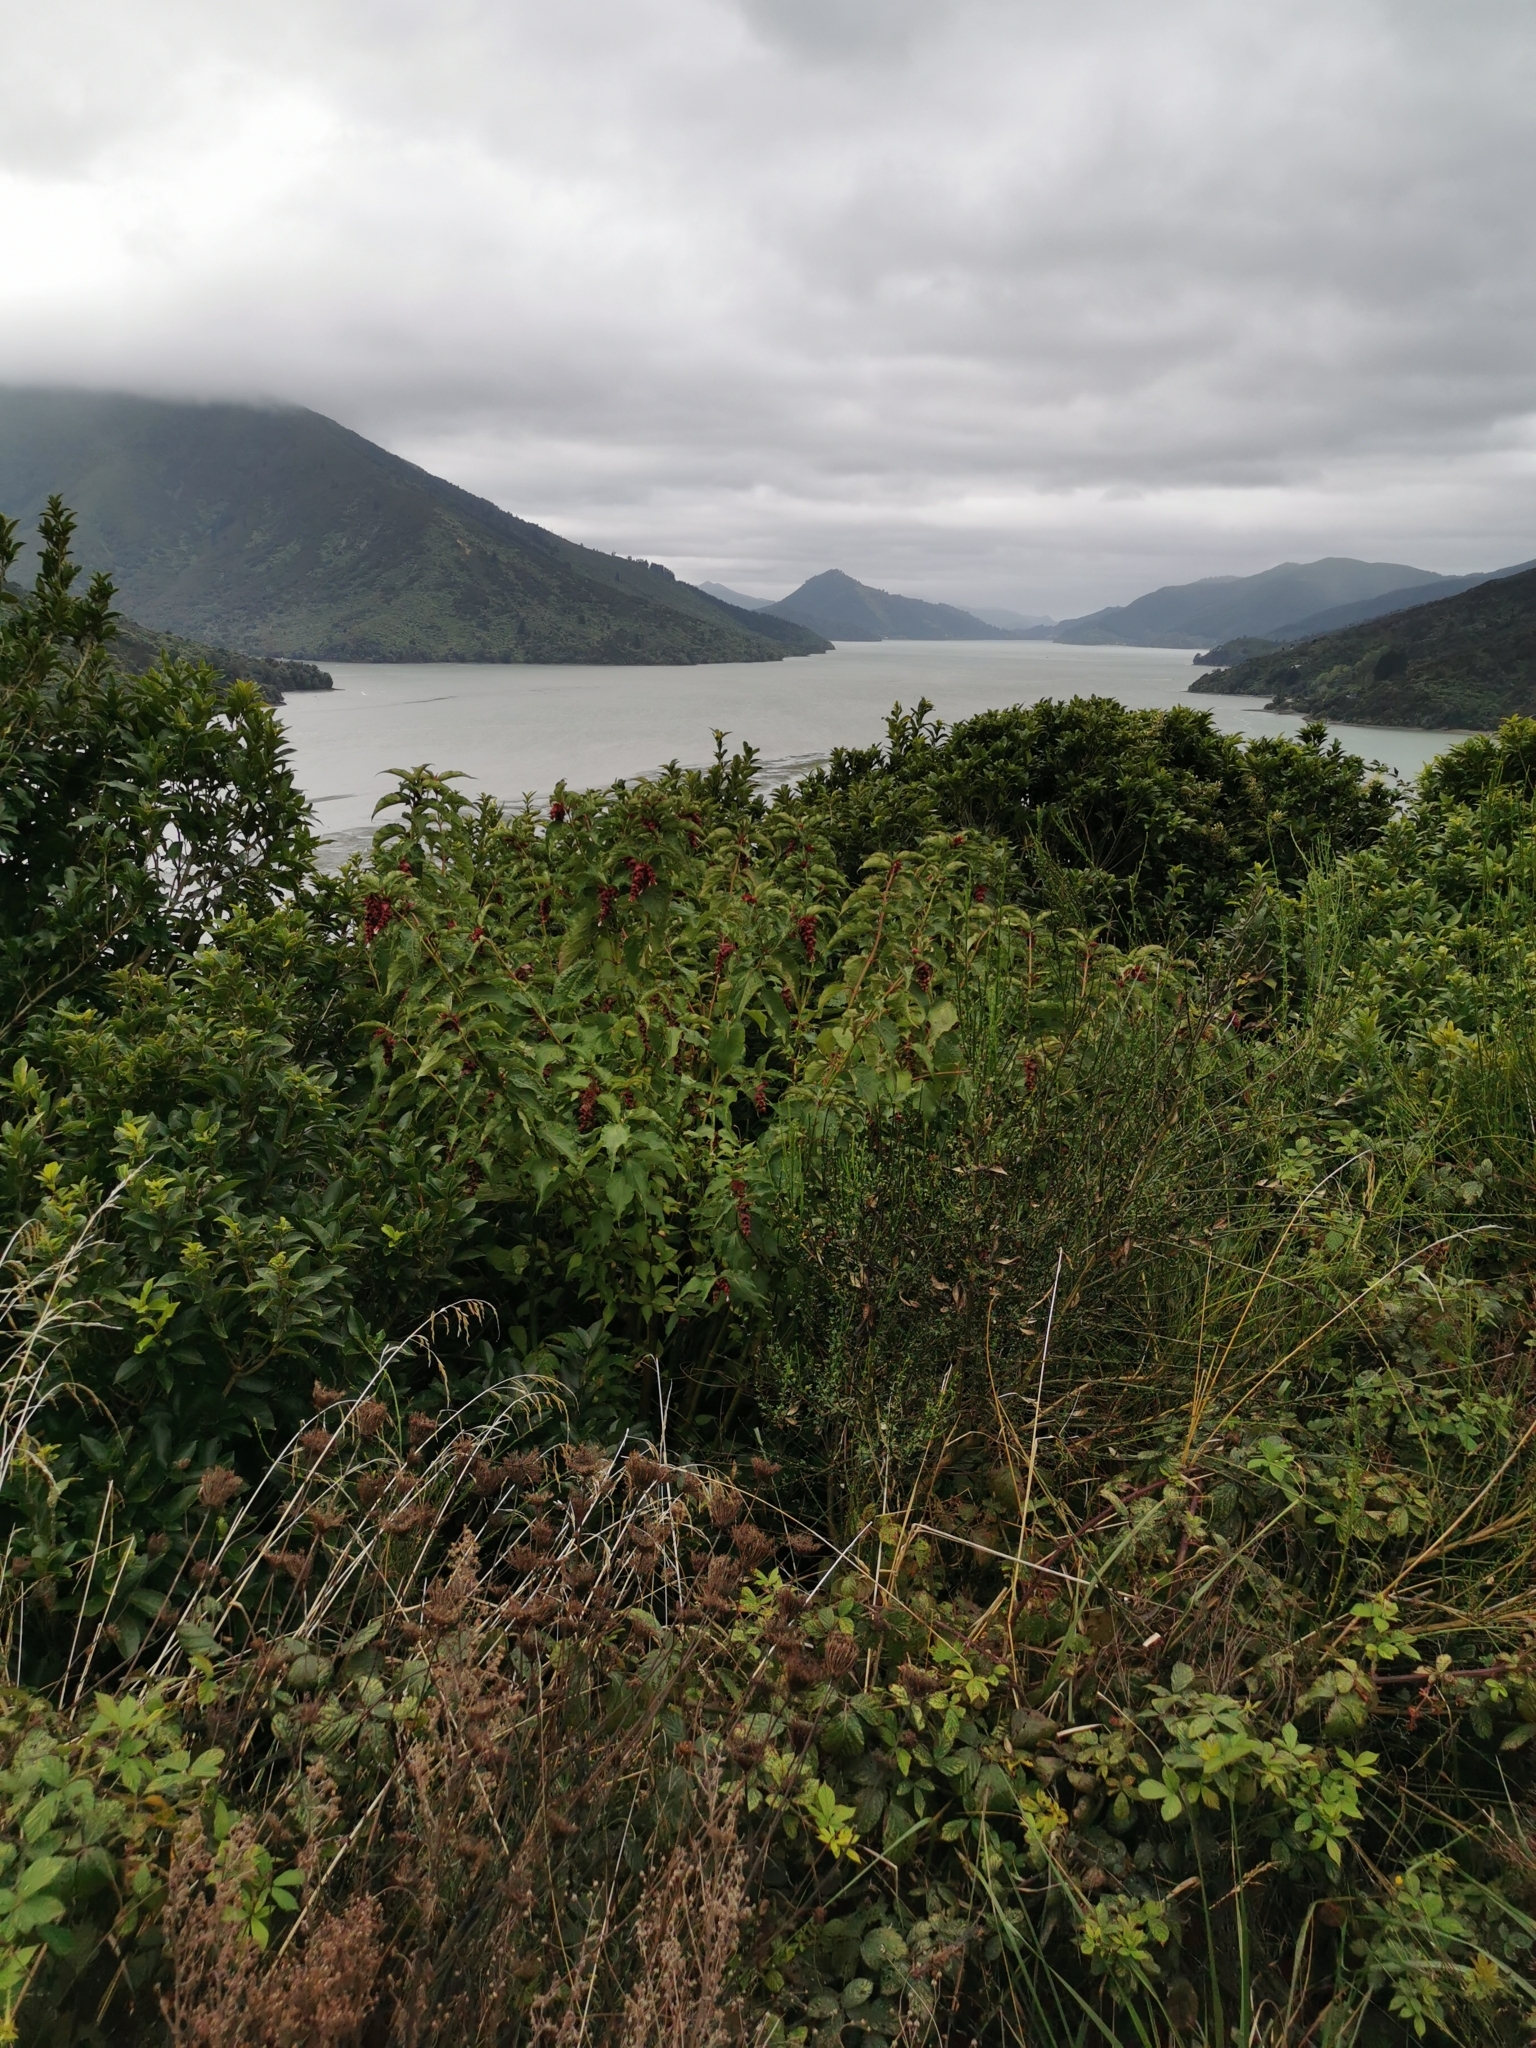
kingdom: Plantae
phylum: Tracheophyta
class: Magnoliopsida
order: Dipsacales
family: Caprifoliaceae
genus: Leycesteria
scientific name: Leycesteria formosa
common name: Himalayan honeysuckle
